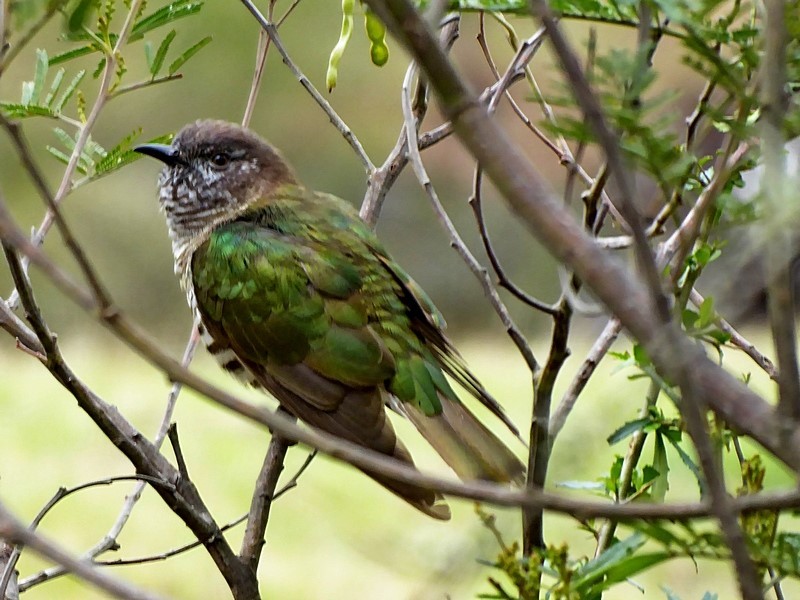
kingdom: Animalia
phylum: Chordata
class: Aves
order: Cuculiformes
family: Cuculidae
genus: Chrysococcyx
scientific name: Chrysococcyx lucidus
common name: Shining bronze cuckoo
